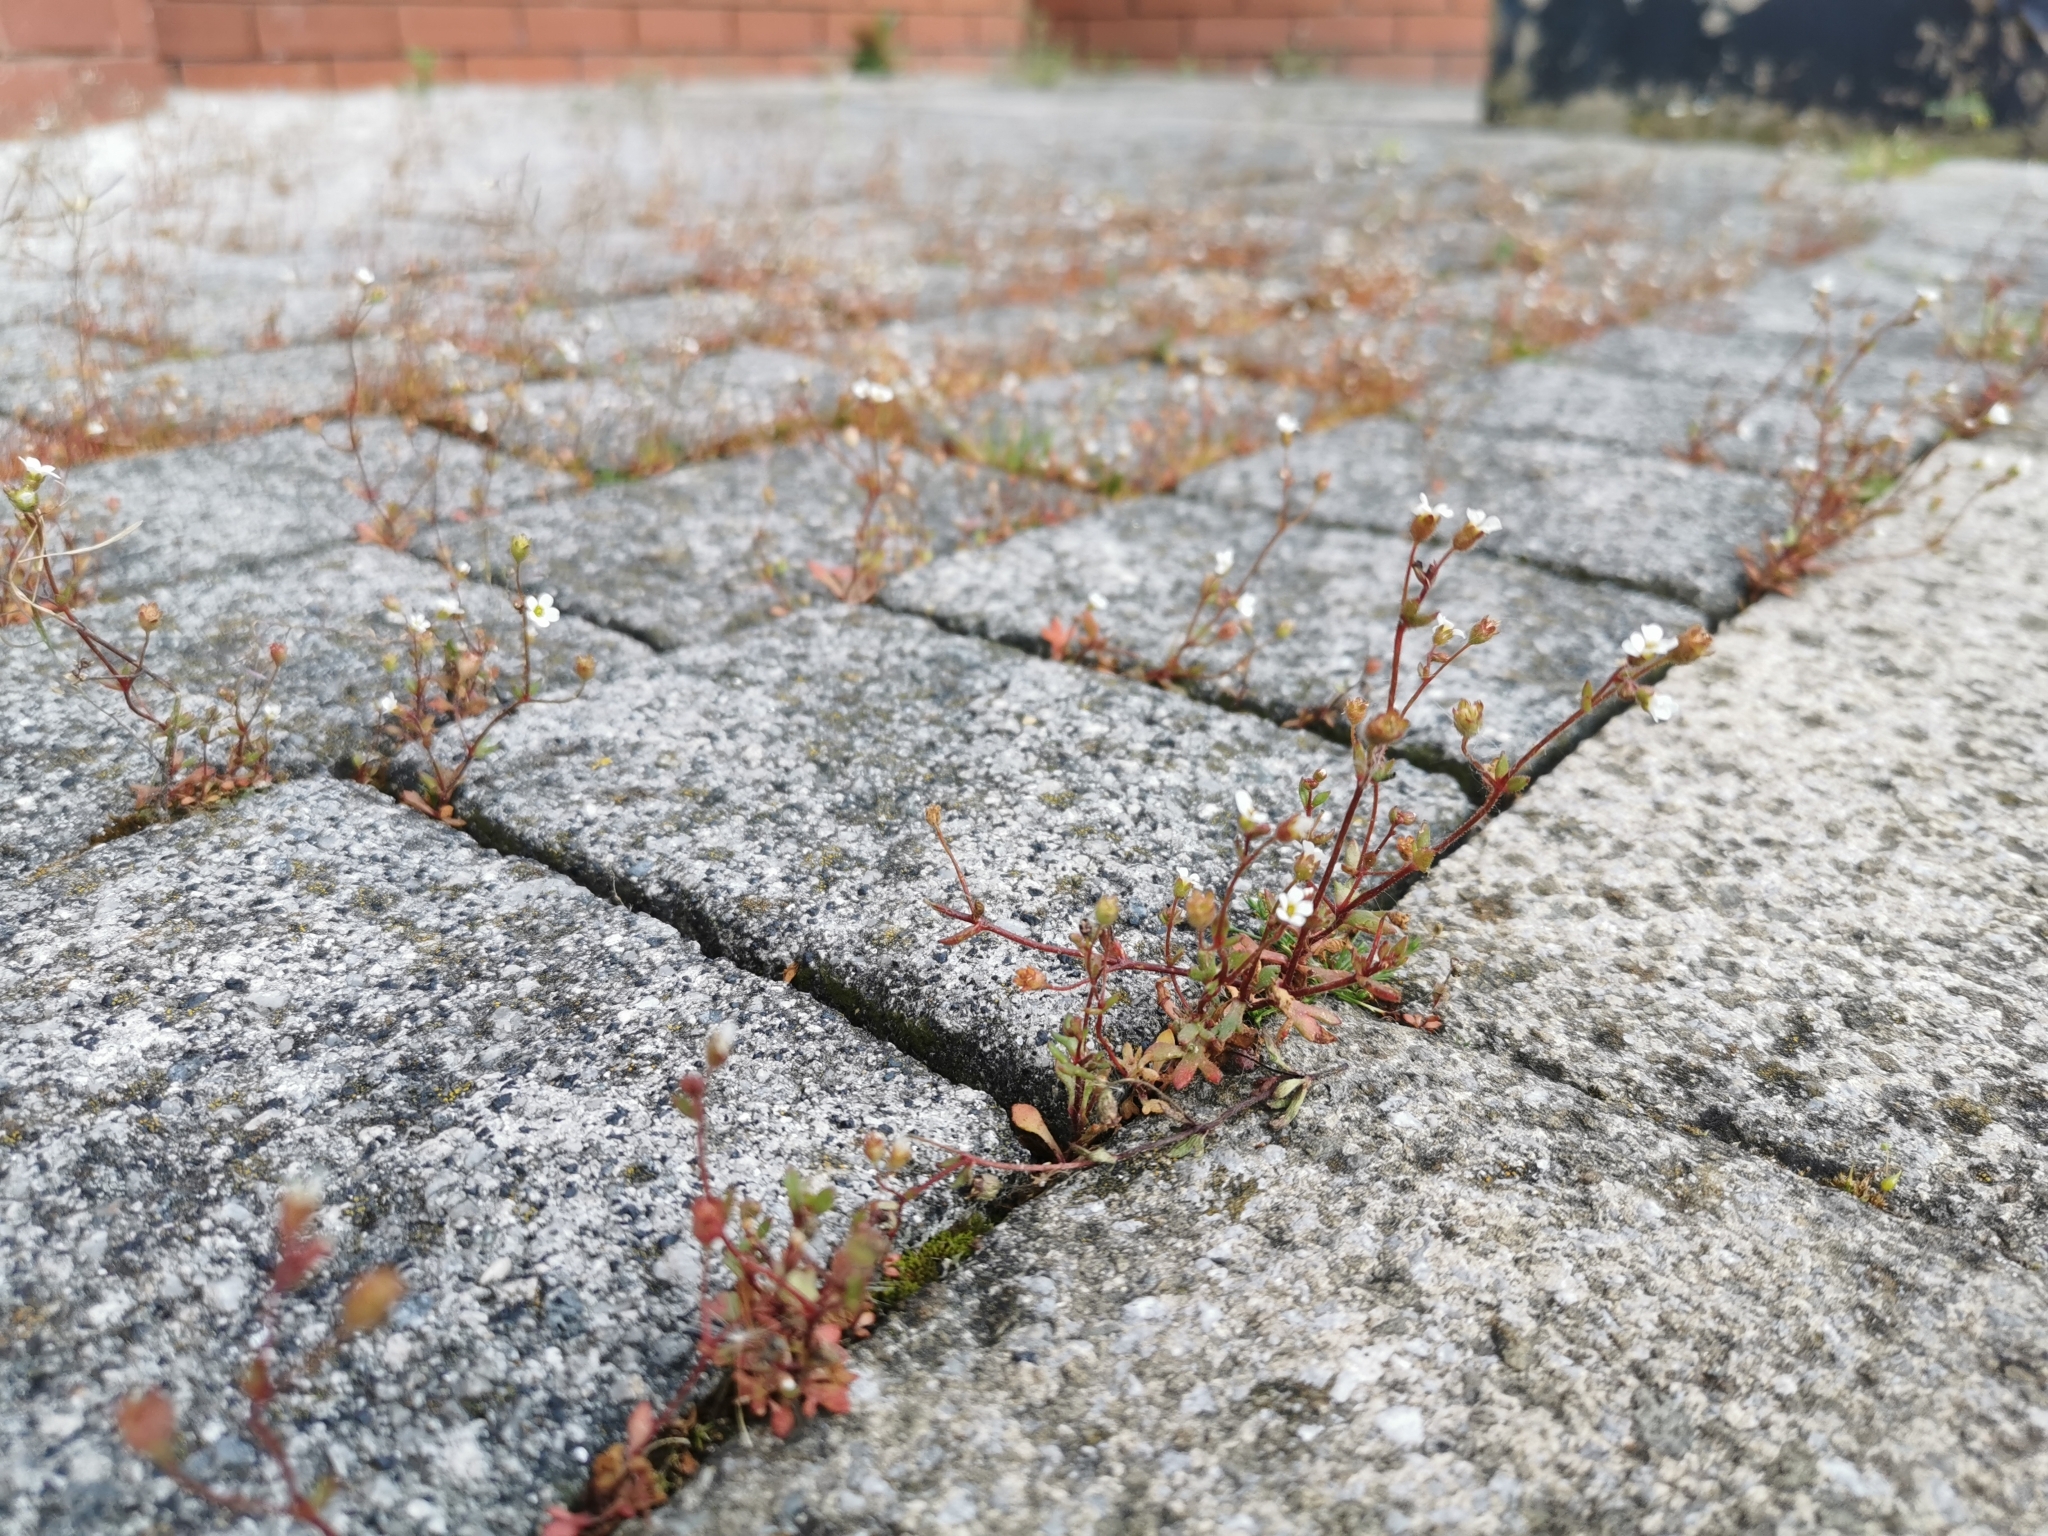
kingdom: Plantae
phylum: Tracheophyta
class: Magnoliopsida
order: Saxifragales
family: Saxifragaceae
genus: Saxifraga
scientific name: Saxifraga tridactylites
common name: Rue-leaved saxifrage
